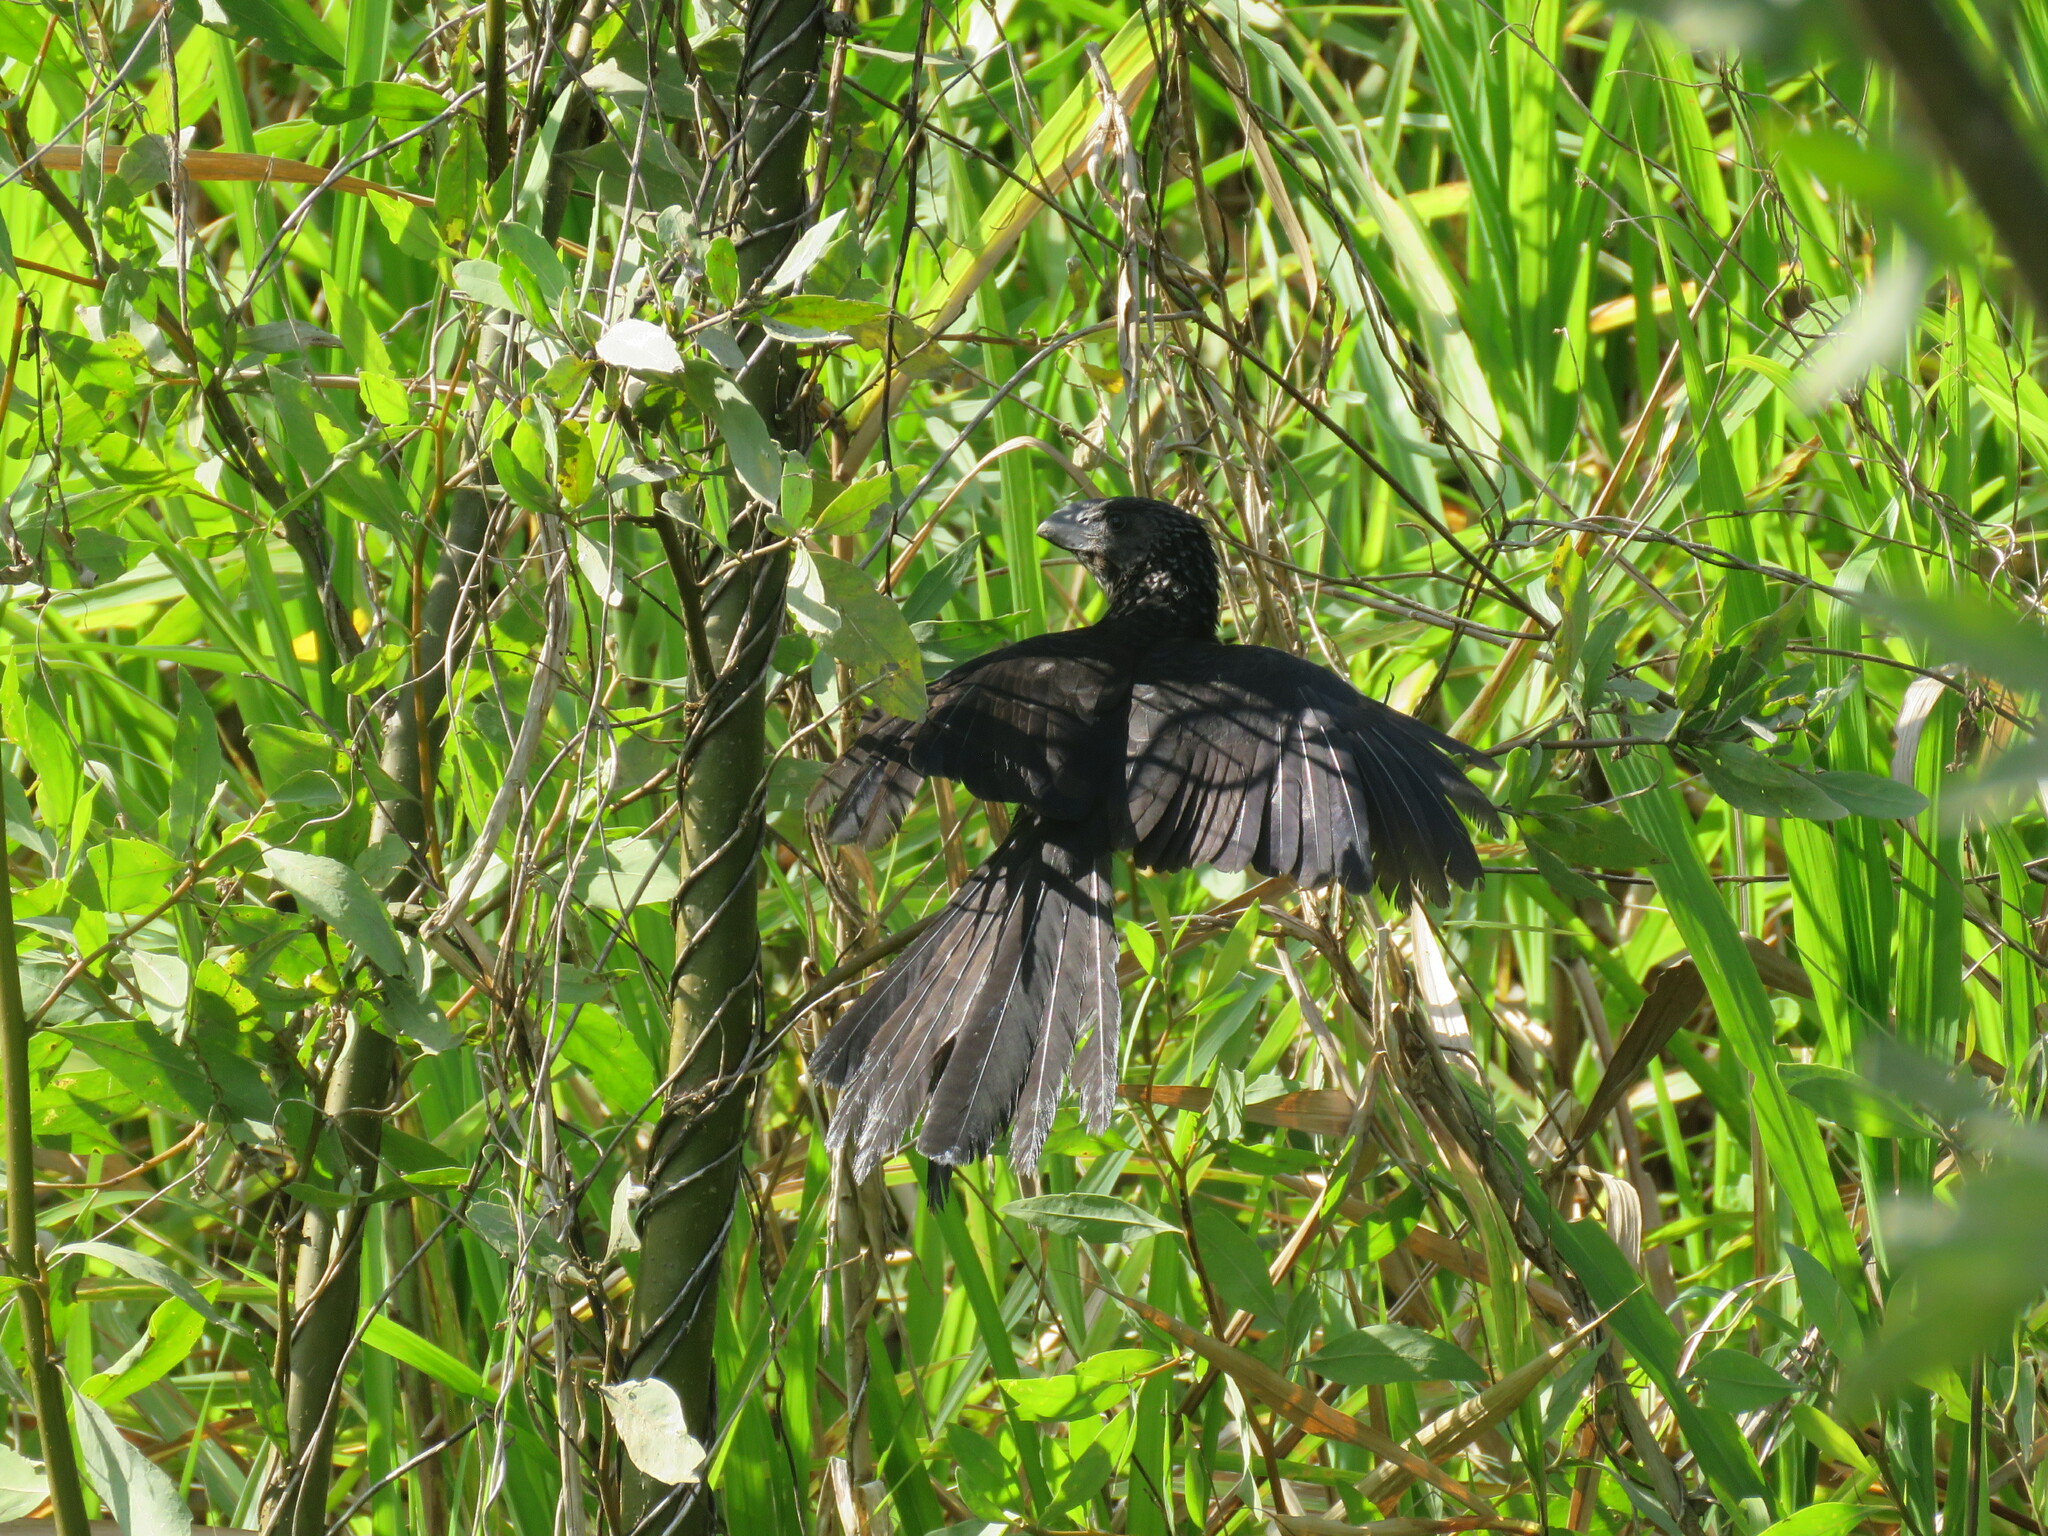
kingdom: Animalia
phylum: Chordata
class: Aves
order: Cuculiformes
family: Cuculidae
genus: Crotophaga
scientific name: Crotophaga ani
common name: Smooth-billed ani
